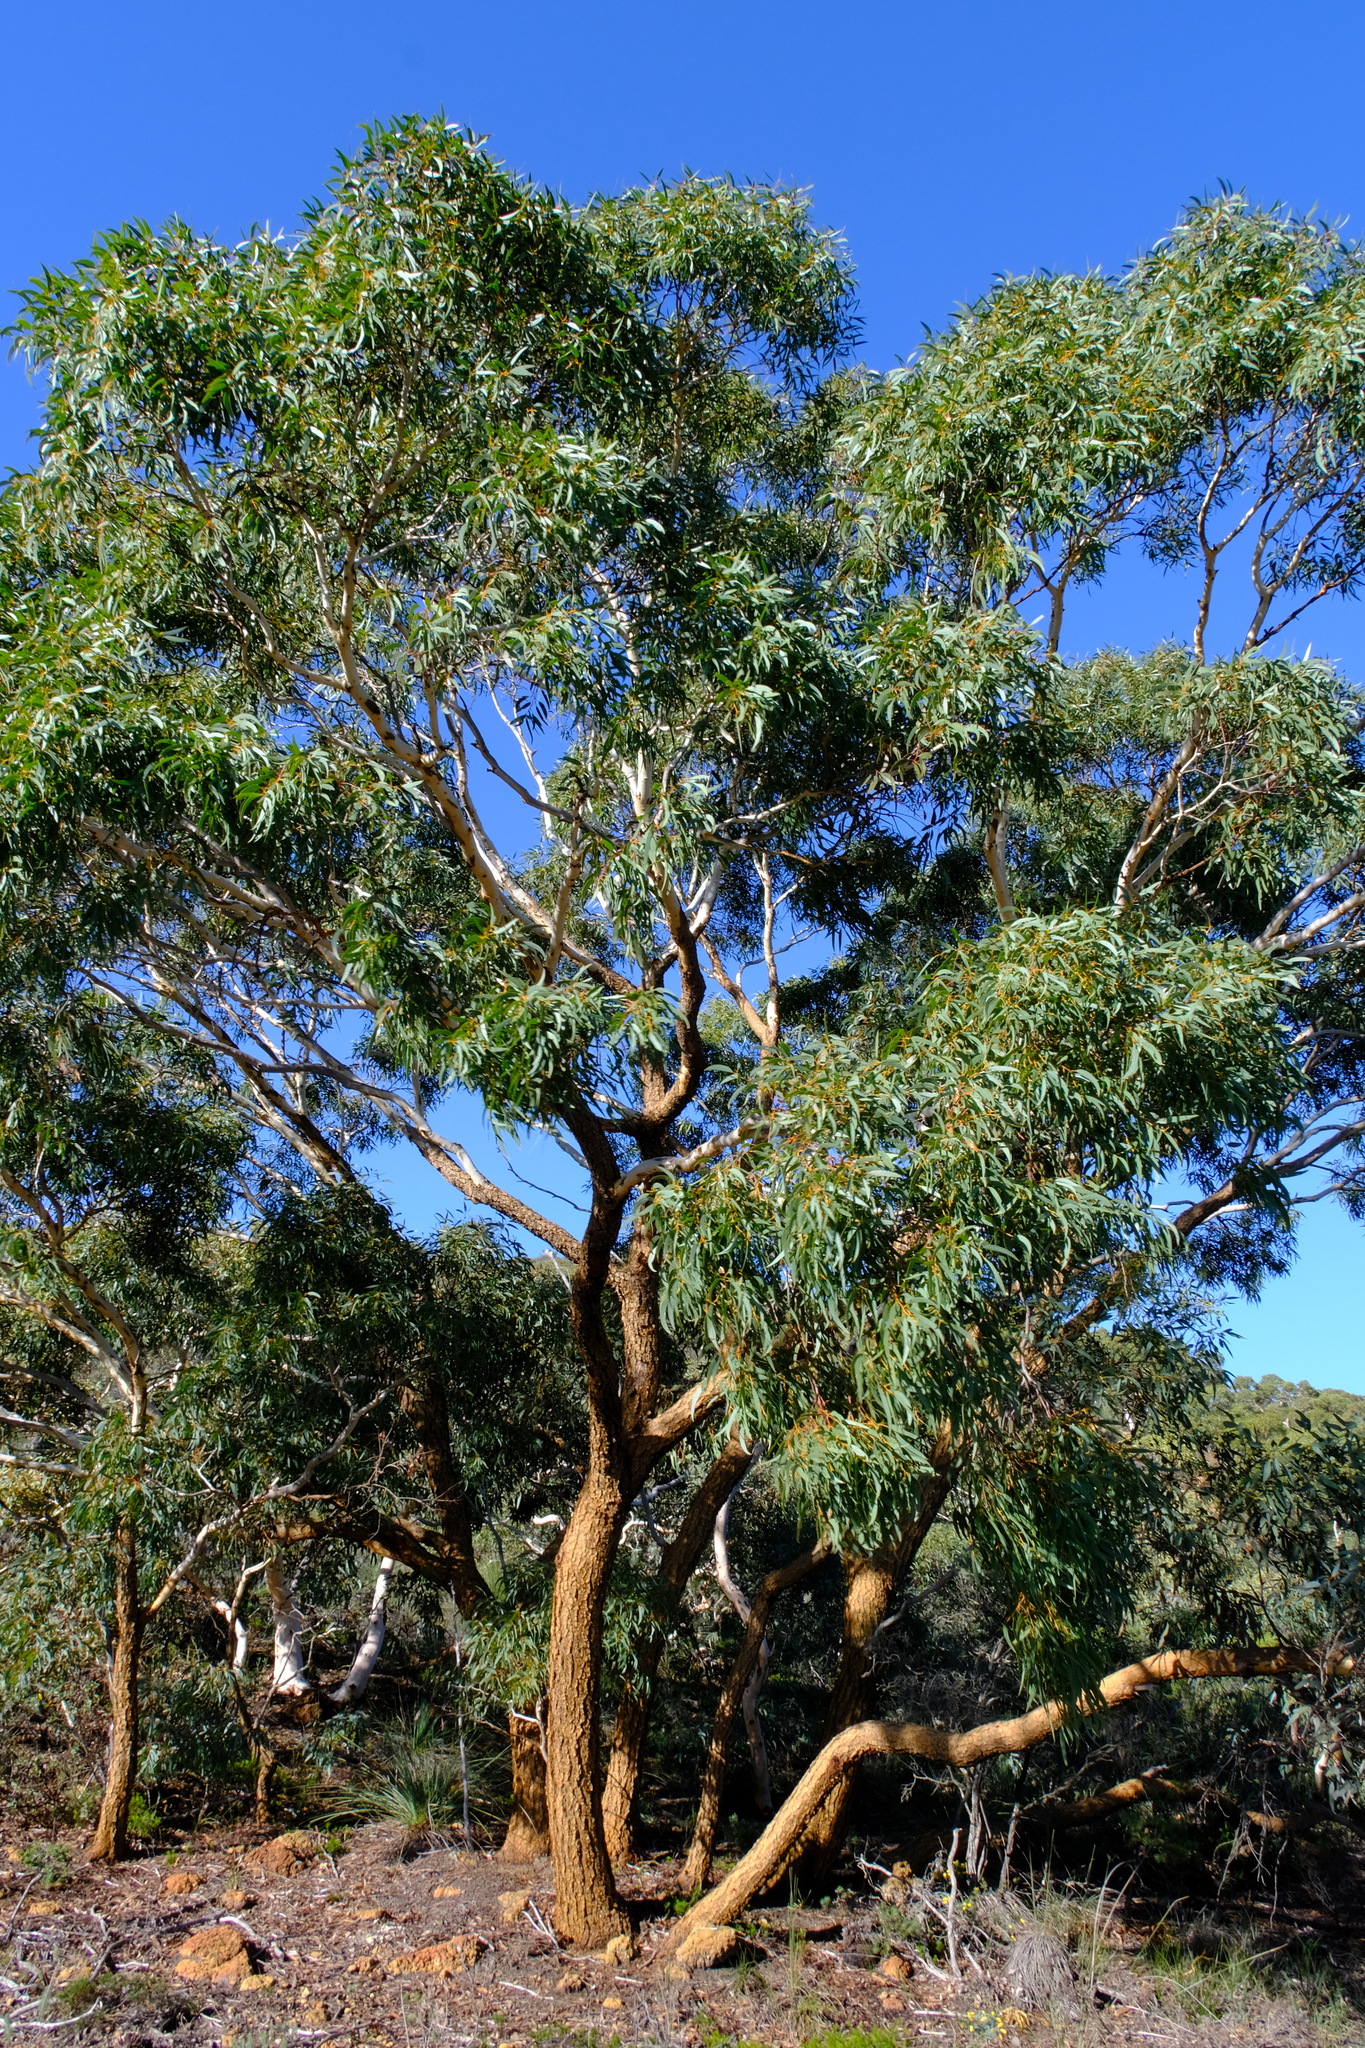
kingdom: Plantae
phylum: Tracheophyta
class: Magnoliopsida
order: Myrtales
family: Myrtaceae
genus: Eucalyptus
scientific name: Eucalyptus suberea
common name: Cork mallee
